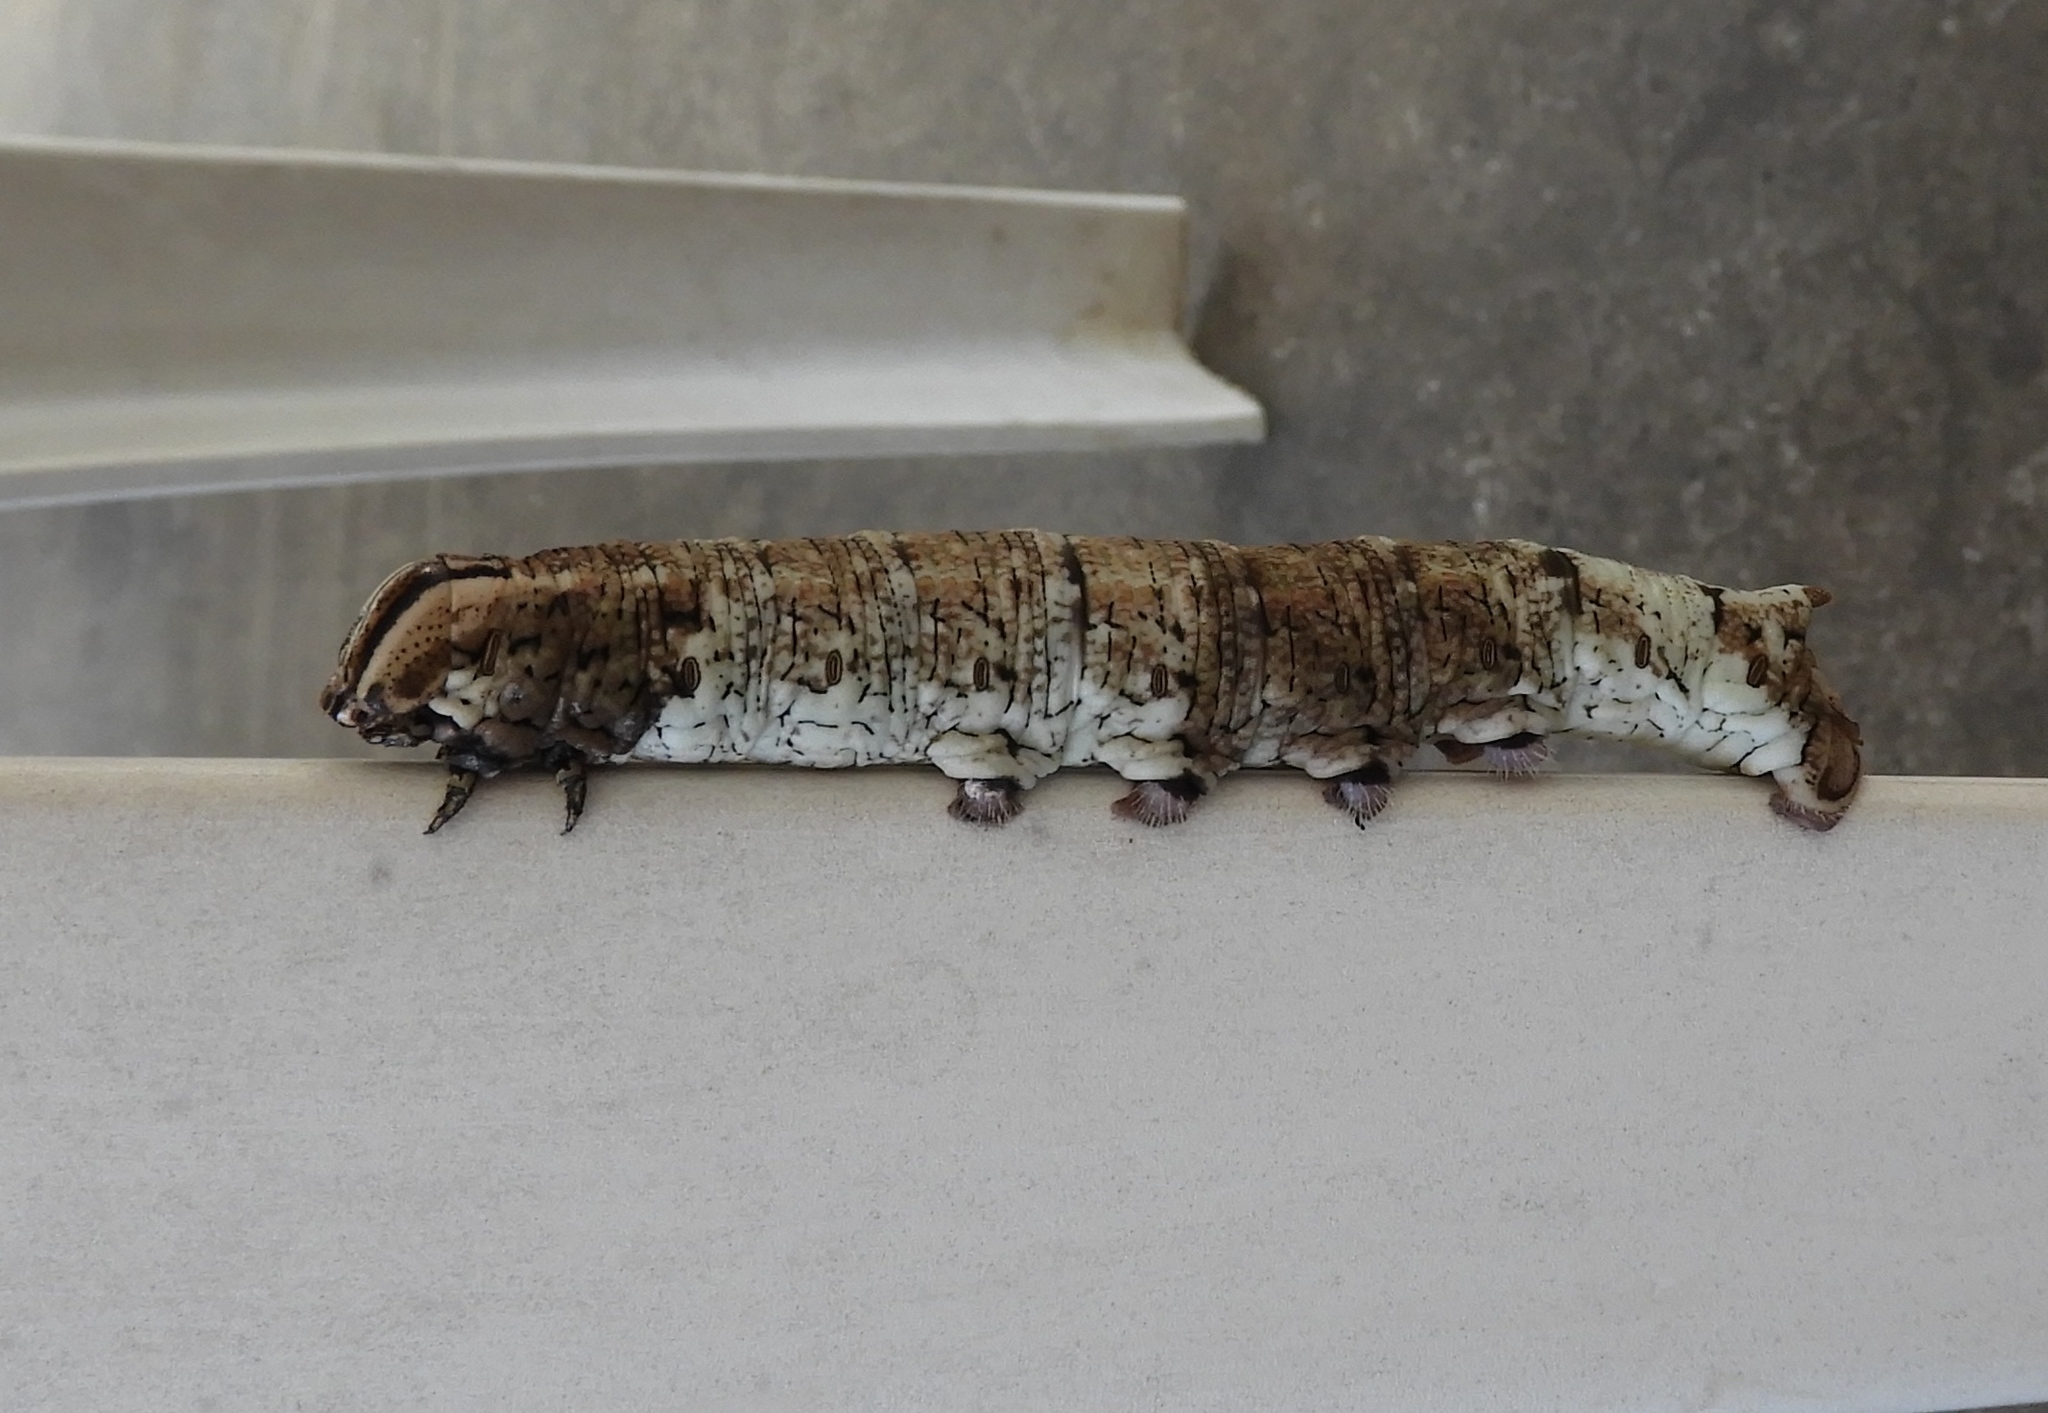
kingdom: Animalia
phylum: Arthropoda
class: Insecta
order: Lepidoptera
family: Sphingidae
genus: Pachylia
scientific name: Pachylia ficus
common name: Fig sphinx
